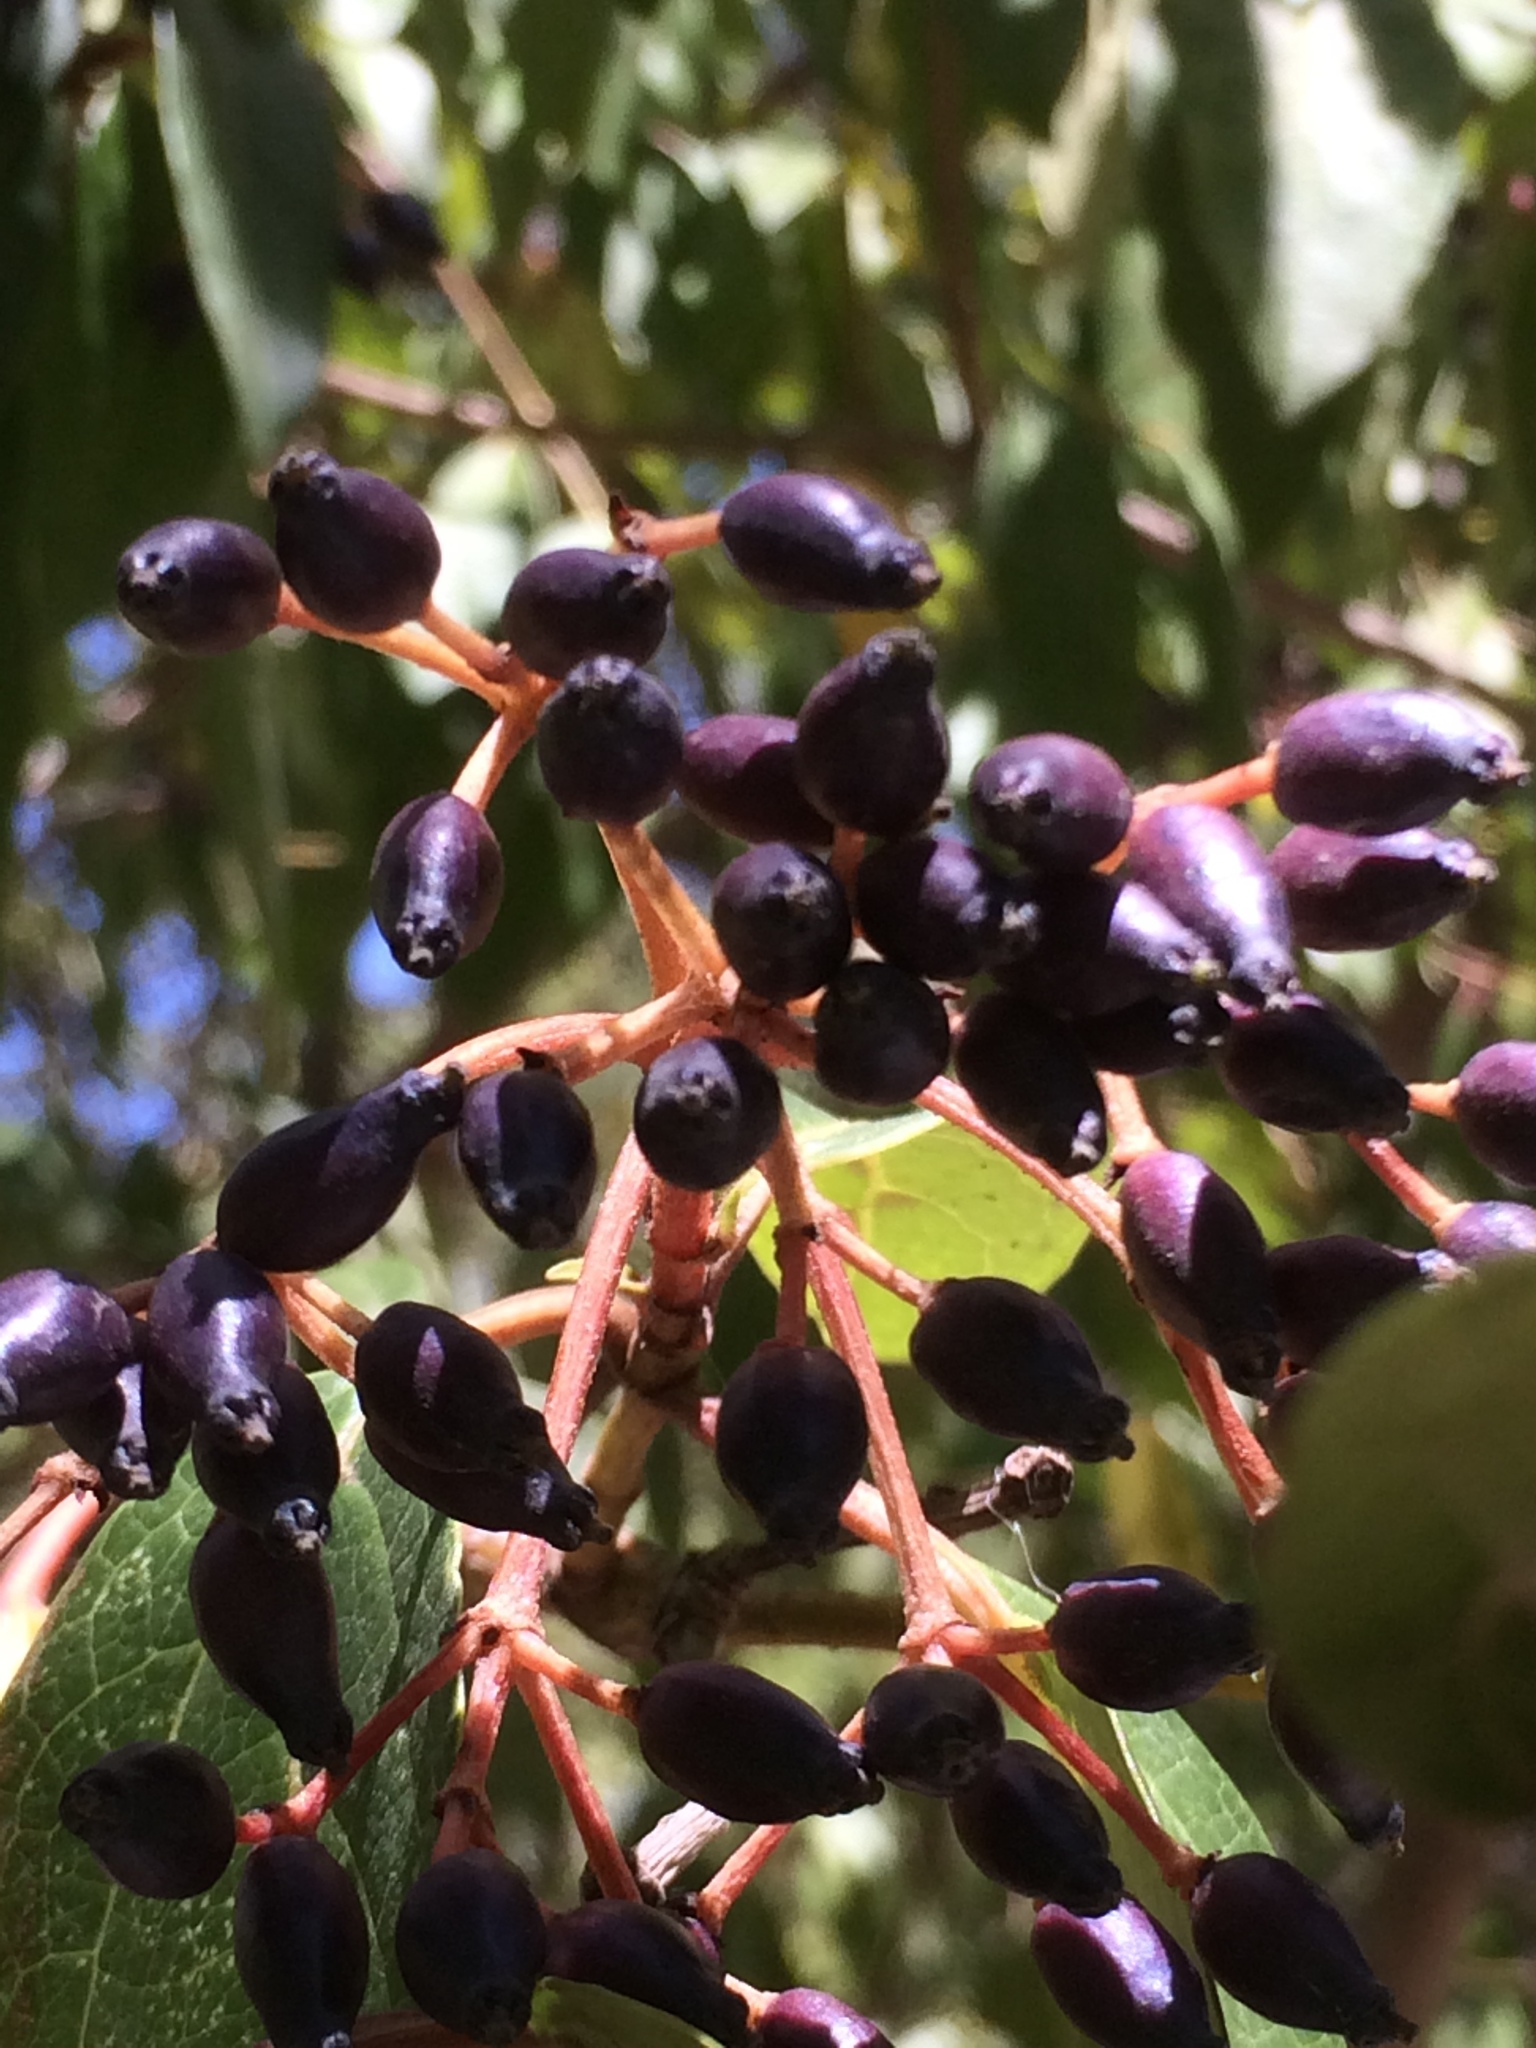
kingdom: Plantae
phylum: Tracheophyta
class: Magnoliopsida
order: Dipsacales
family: Viburnaceae
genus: Viburnum
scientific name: Viburnum tinus
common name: Laurustinus
